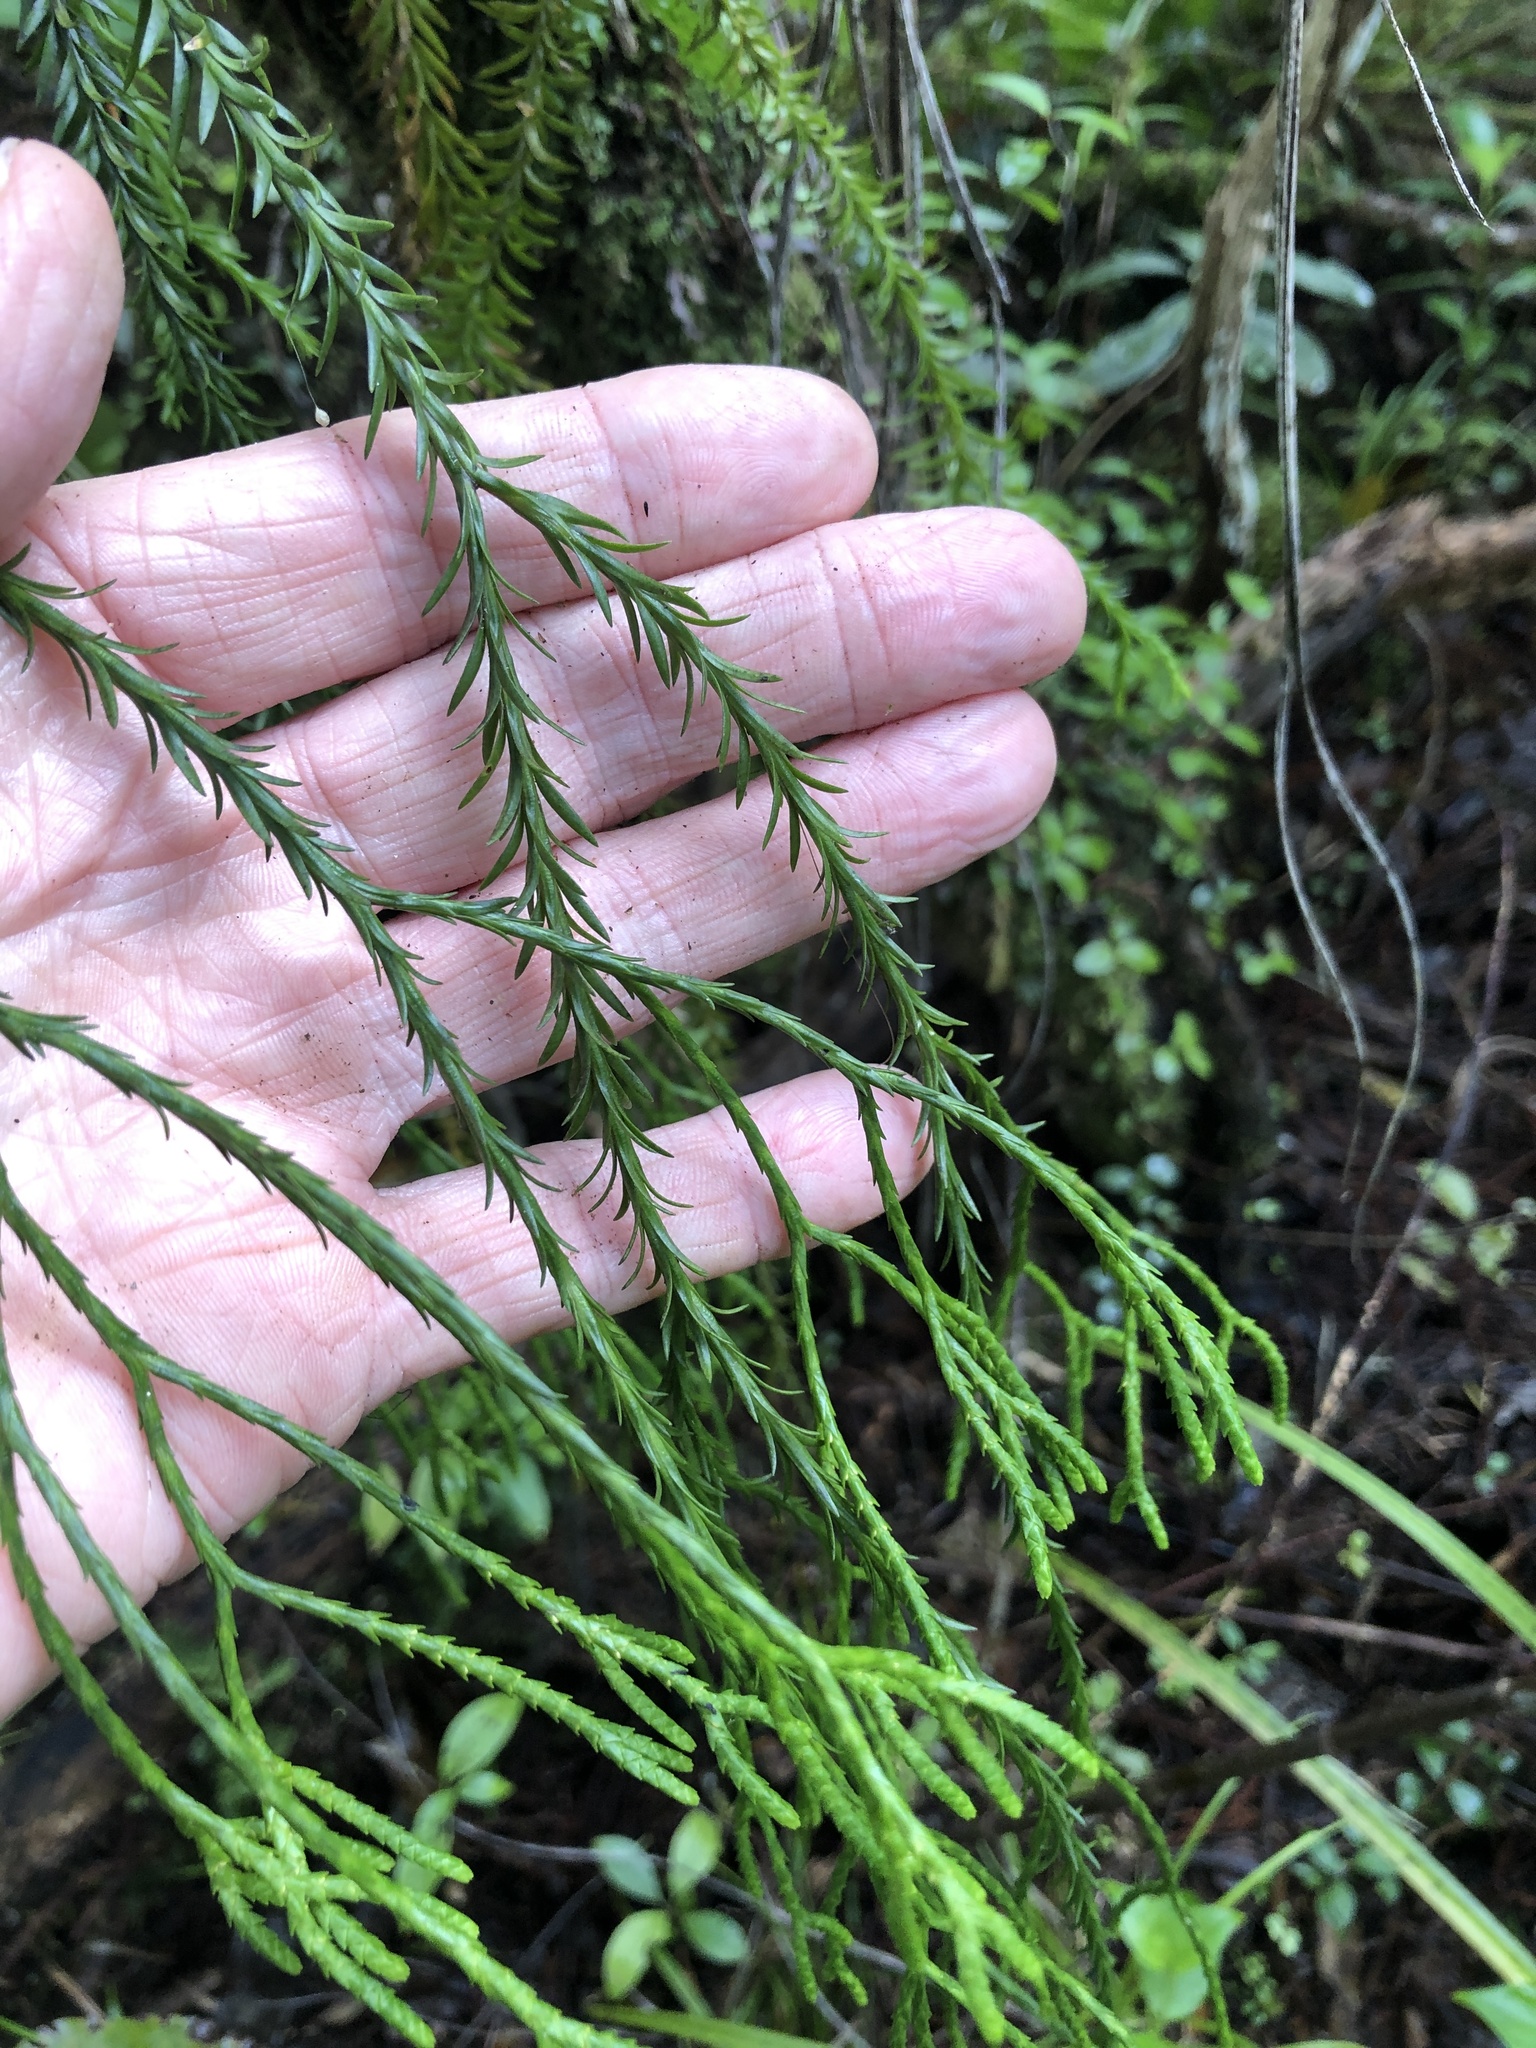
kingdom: Plantae
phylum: Tracheophyta
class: Lycopodiopsida
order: Lycopodiales
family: Lycopodiaceae
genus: Phlegmariurus
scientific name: Phlegmariurus billardierei
